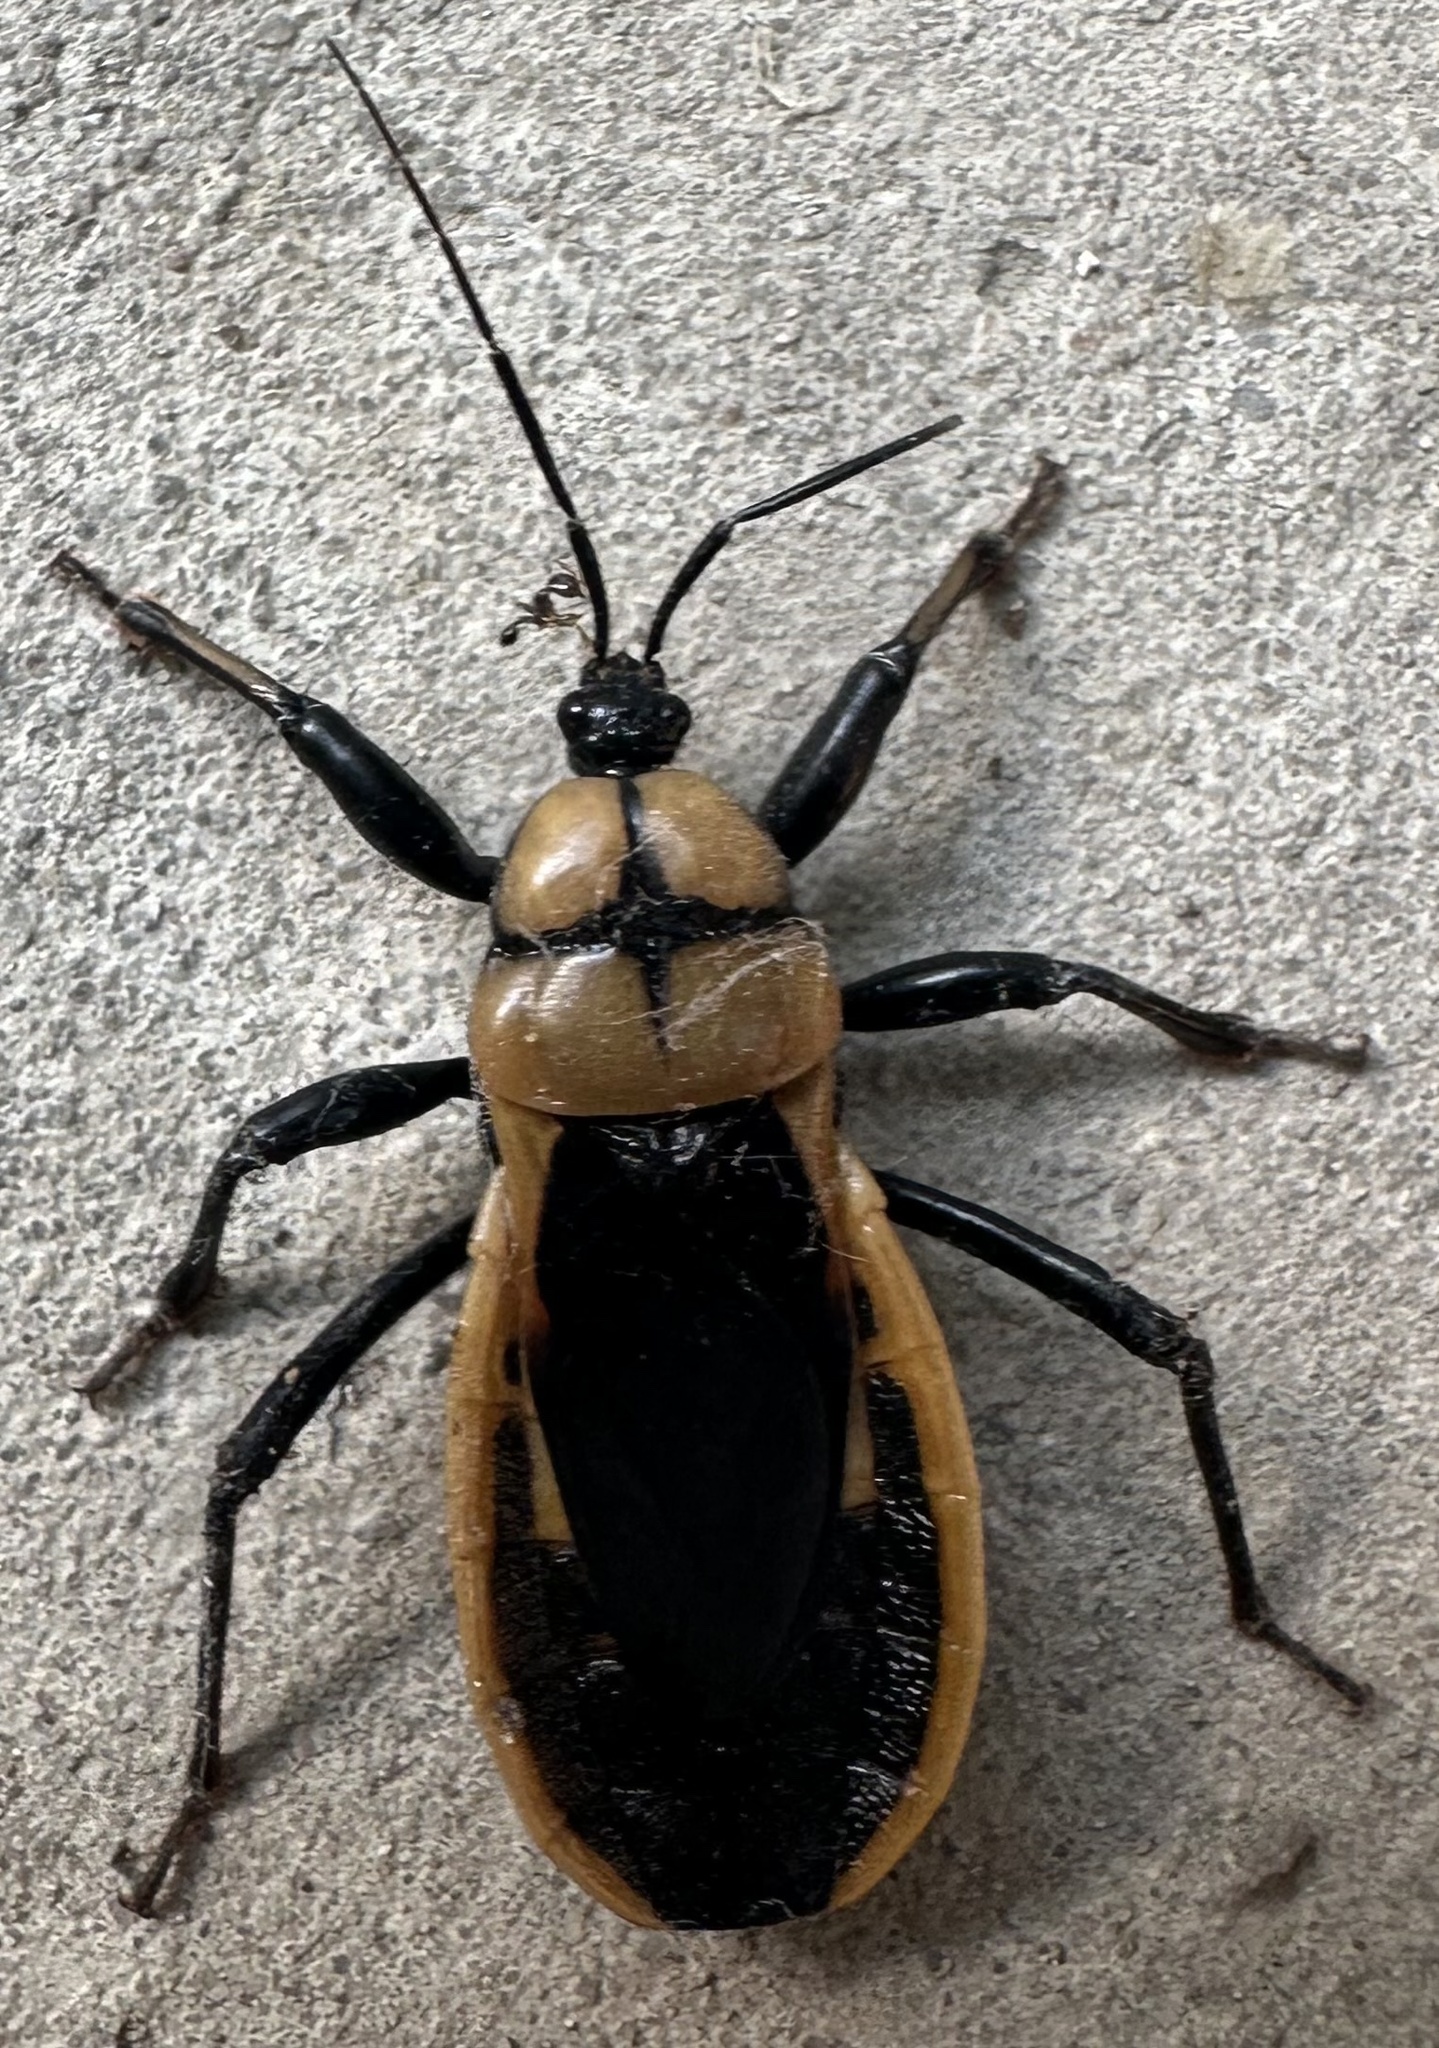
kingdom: Animalia
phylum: Arthropoda
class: Insecta
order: Hemiptera
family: Reduviidae
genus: Ectrichodia
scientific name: Ectrichodia crux
